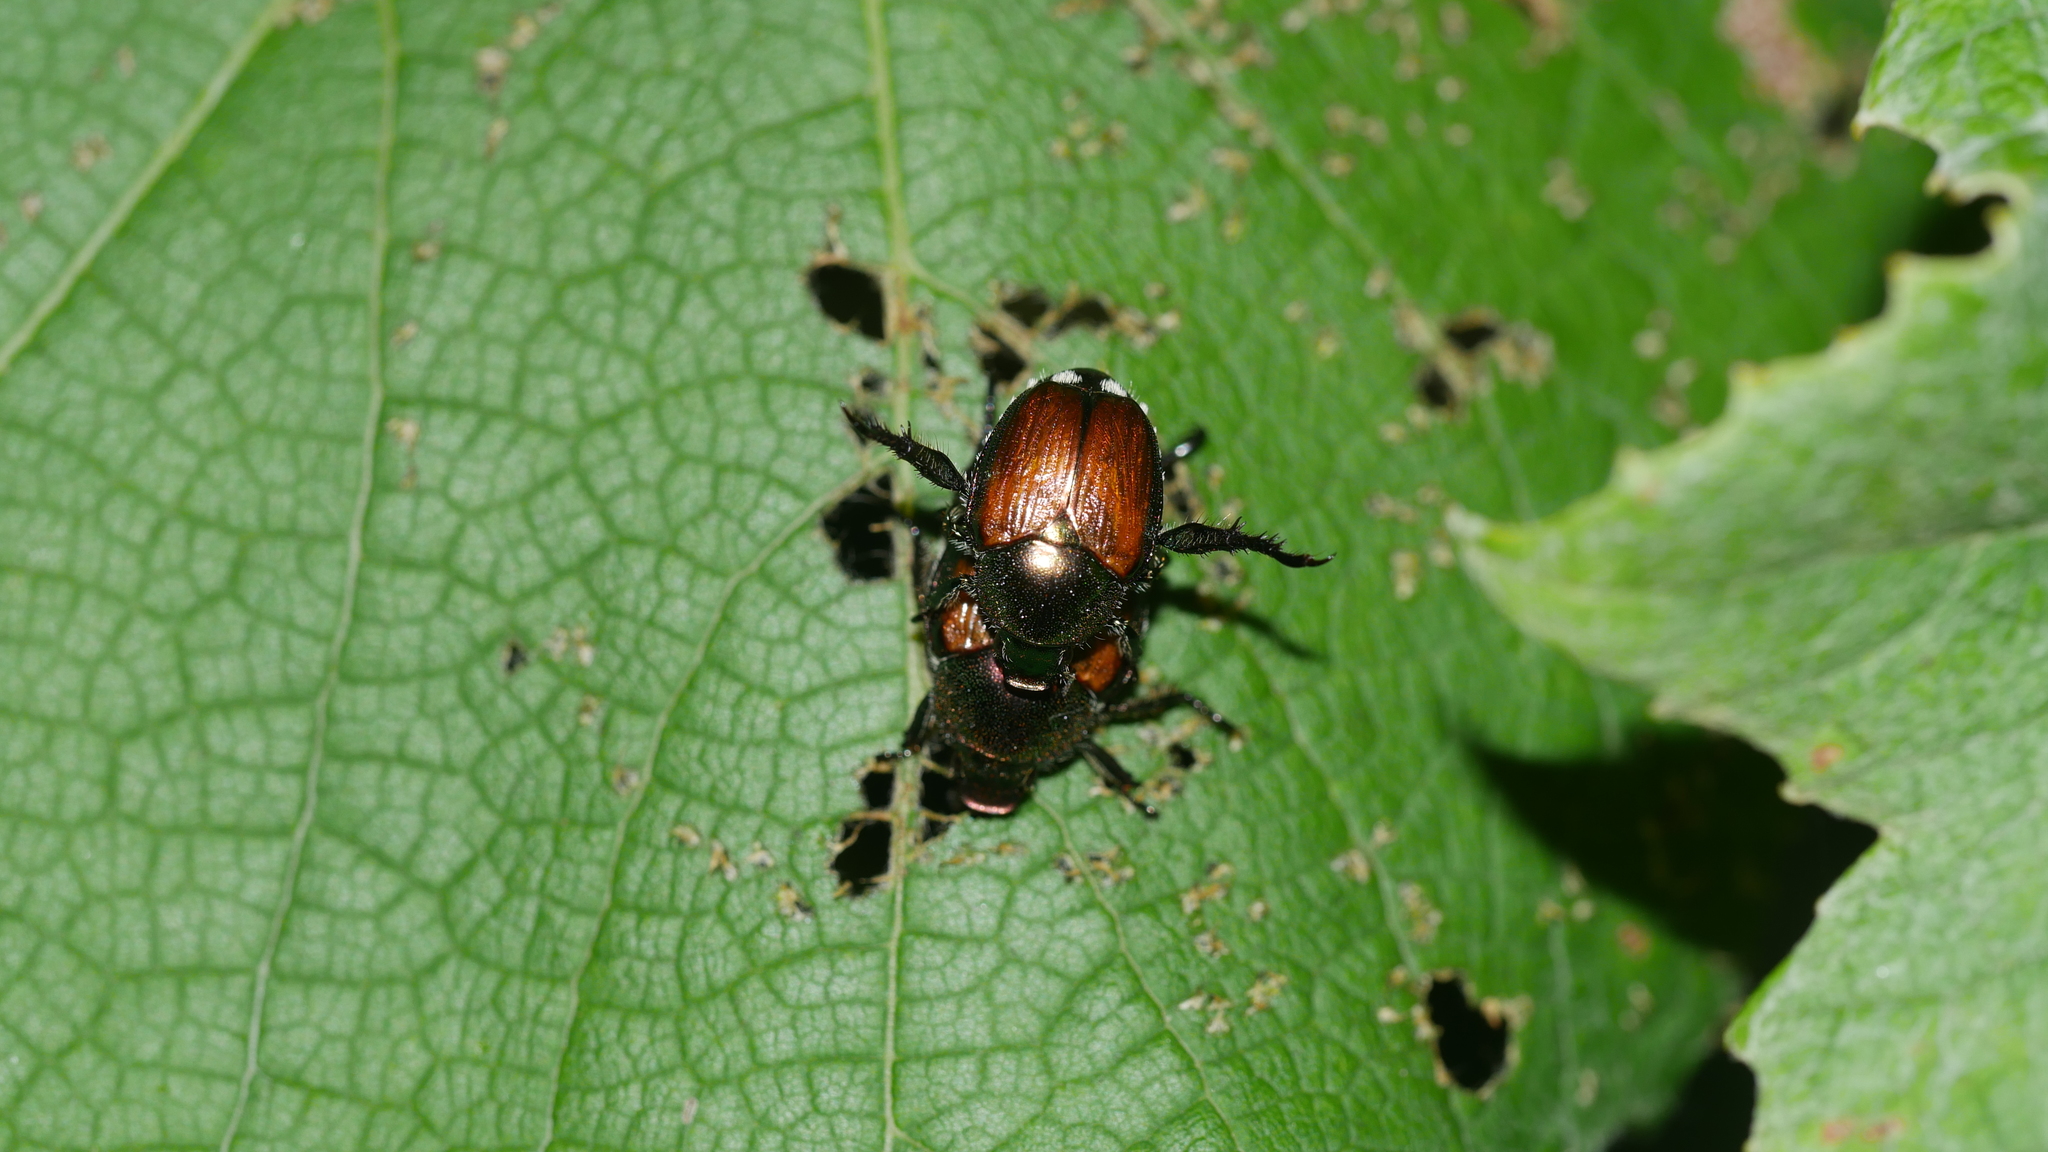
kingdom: Animalia
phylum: Arthropoda
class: Insecta
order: Coleoptera
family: Scarabaeidae
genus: Popillia
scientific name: Popillia japonica
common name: Japanese beetle
